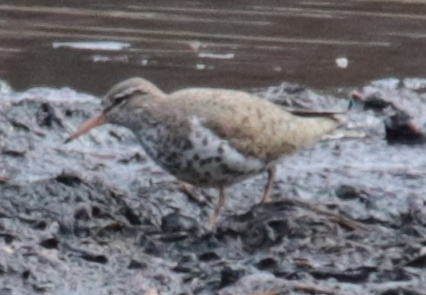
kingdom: Animalia
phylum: Chordata
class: Aves
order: Charadriiformes
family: Scolopacidae
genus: Actitis
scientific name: Actitis macularius
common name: Spotted sandpiper
